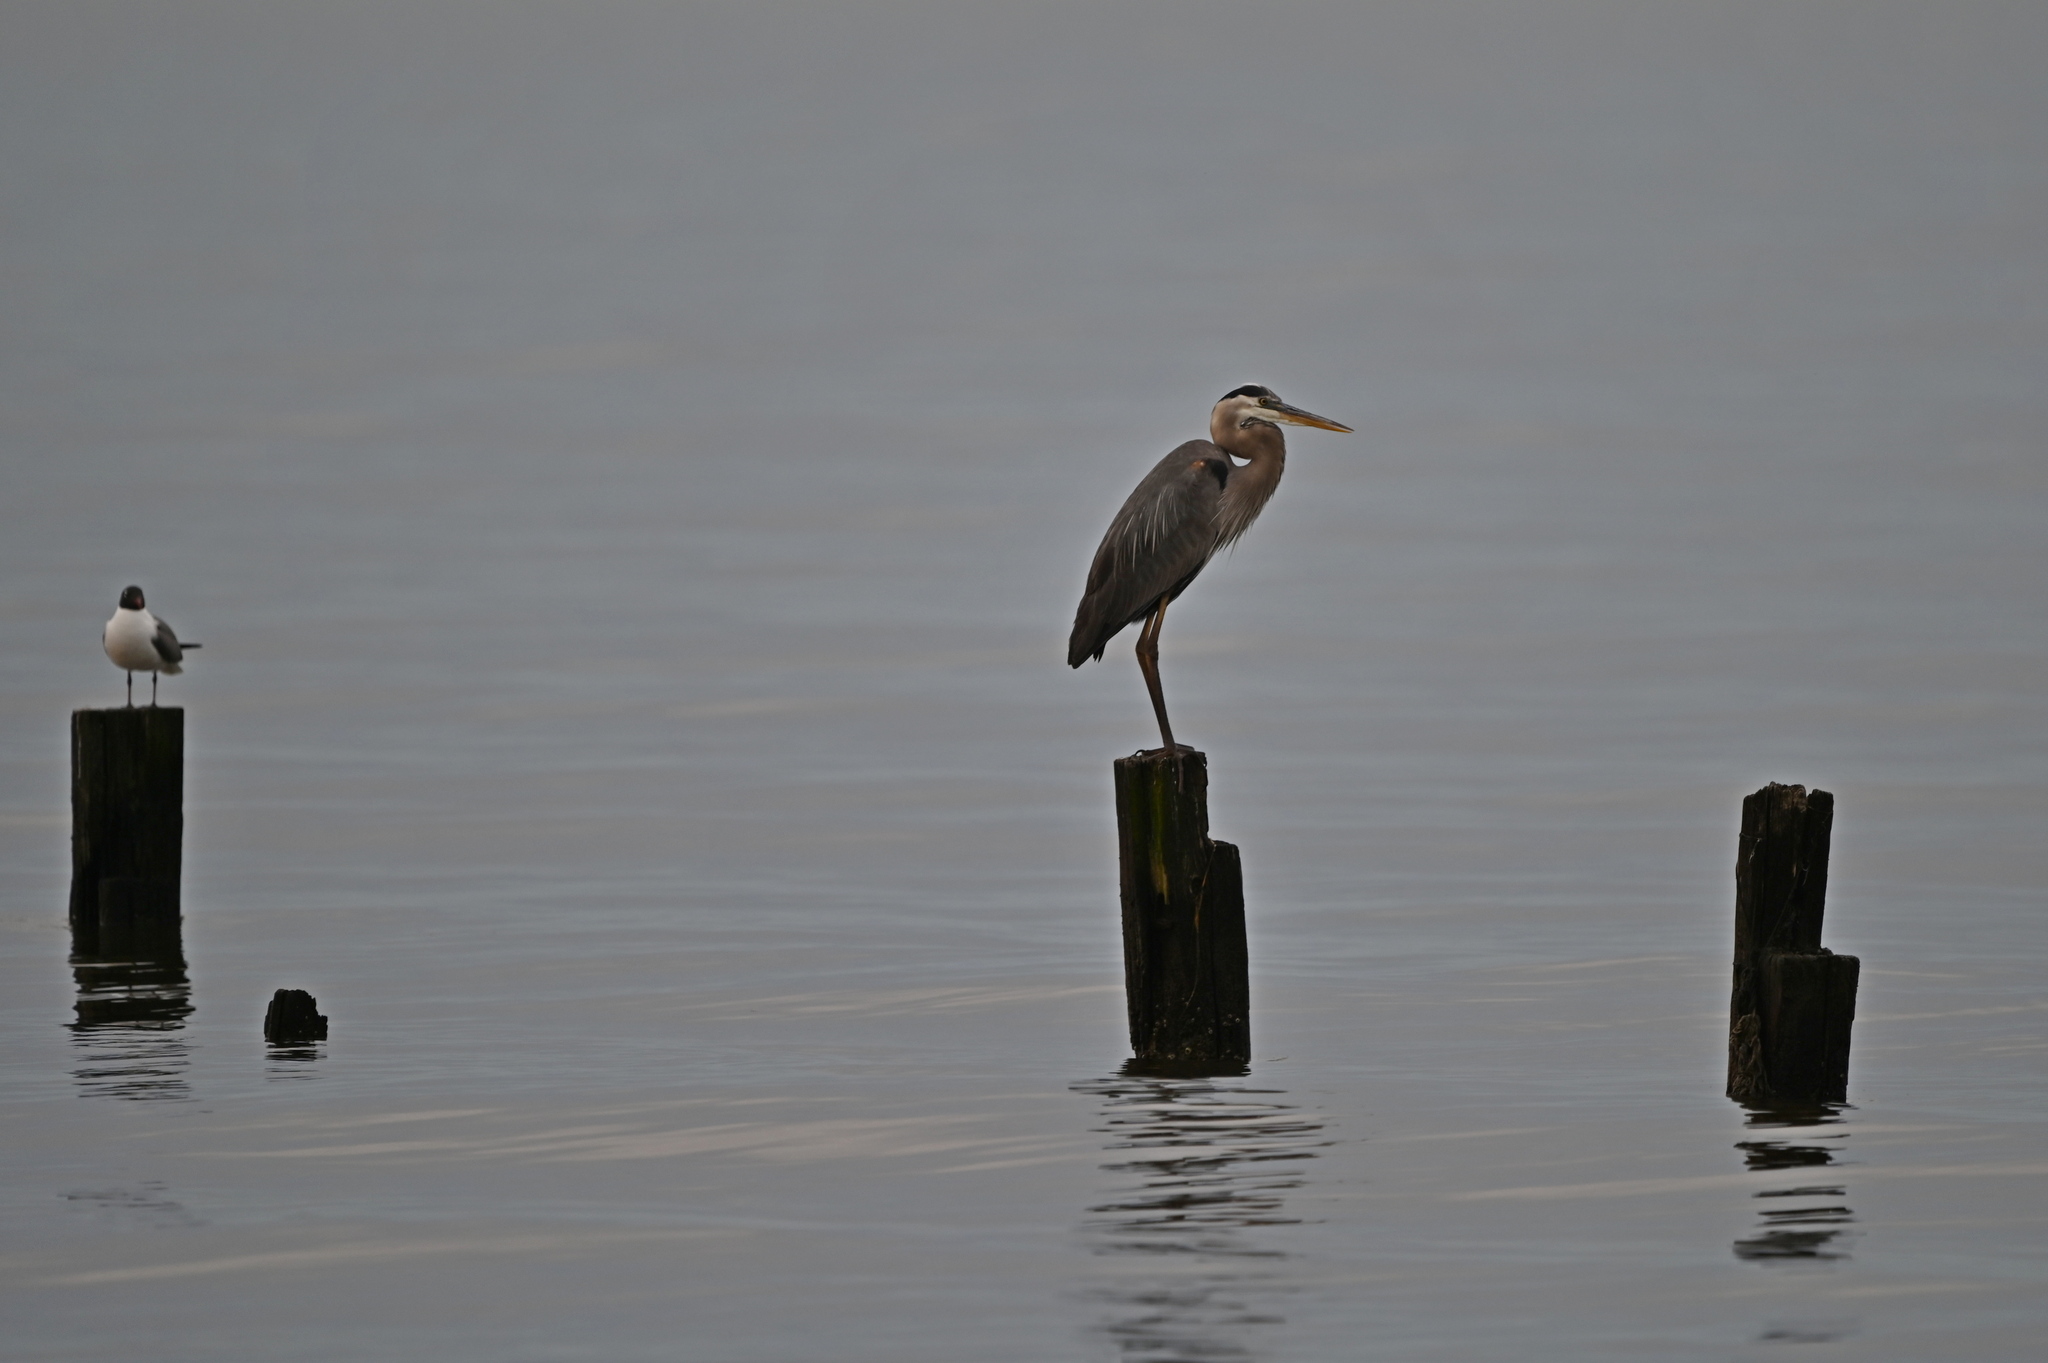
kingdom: Animalia
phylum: Chordata
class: Aves
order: Pelecaniformes
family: Ardeidae
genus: Ardea
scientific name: Ardea herodias
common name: Great blue heron
